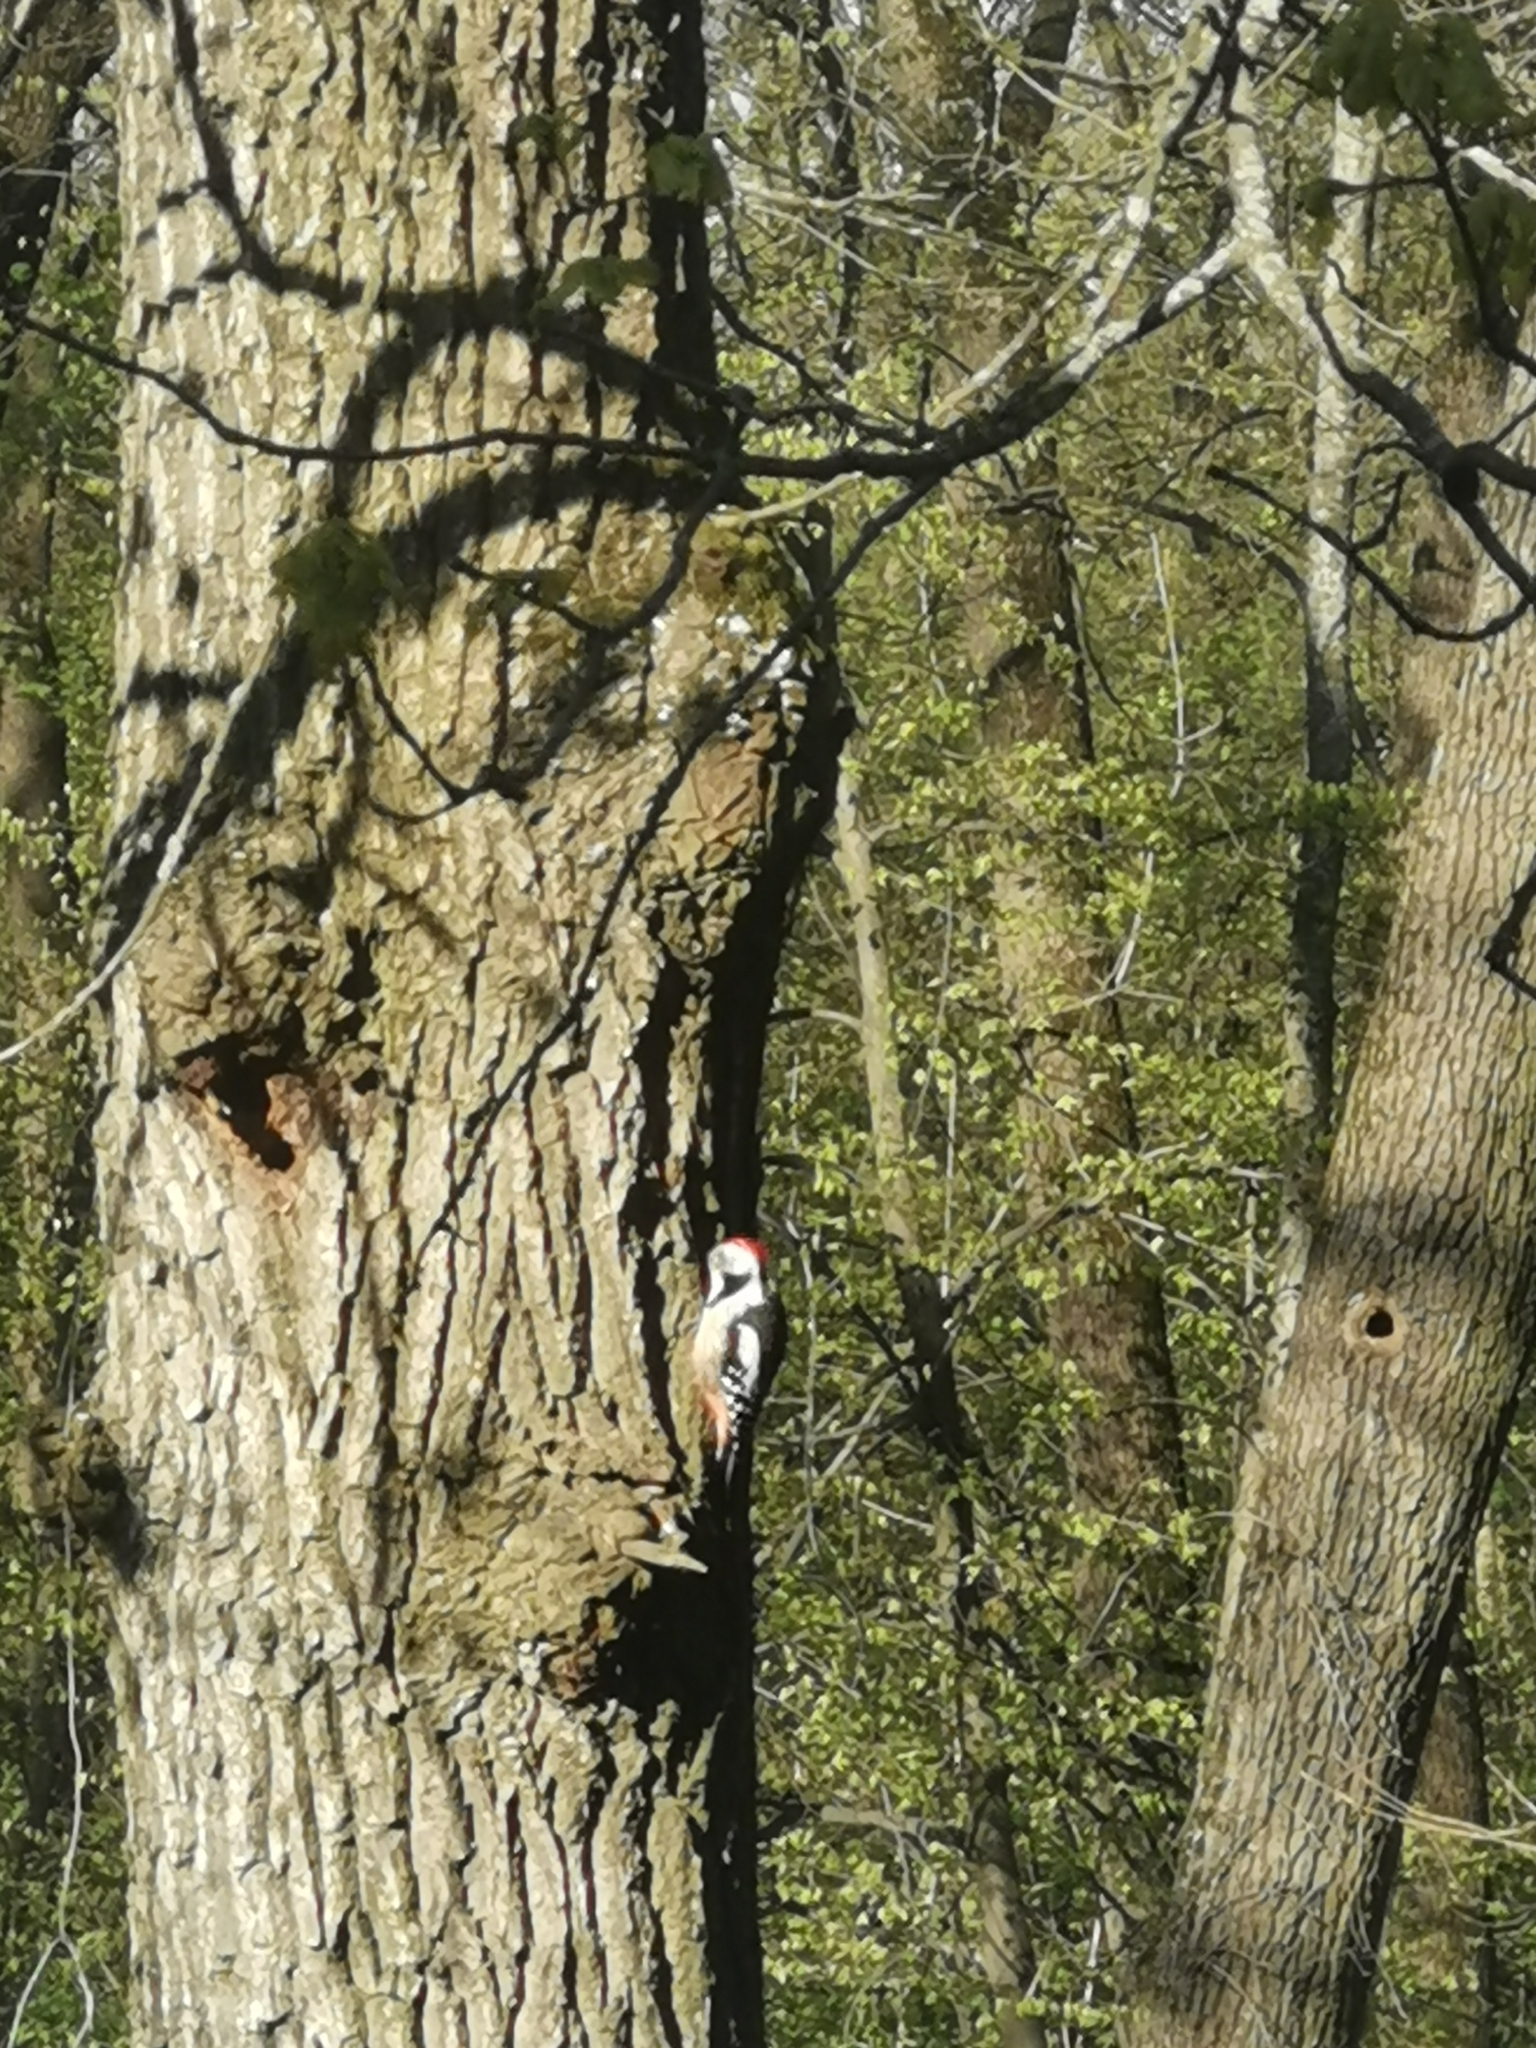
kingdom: Animalia
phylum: Chordata
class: Aves
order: Piciformes
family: Picidae
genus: Dendrocoptes
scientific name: Dendrocoptes medius
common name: Middle spotted woodpecker
